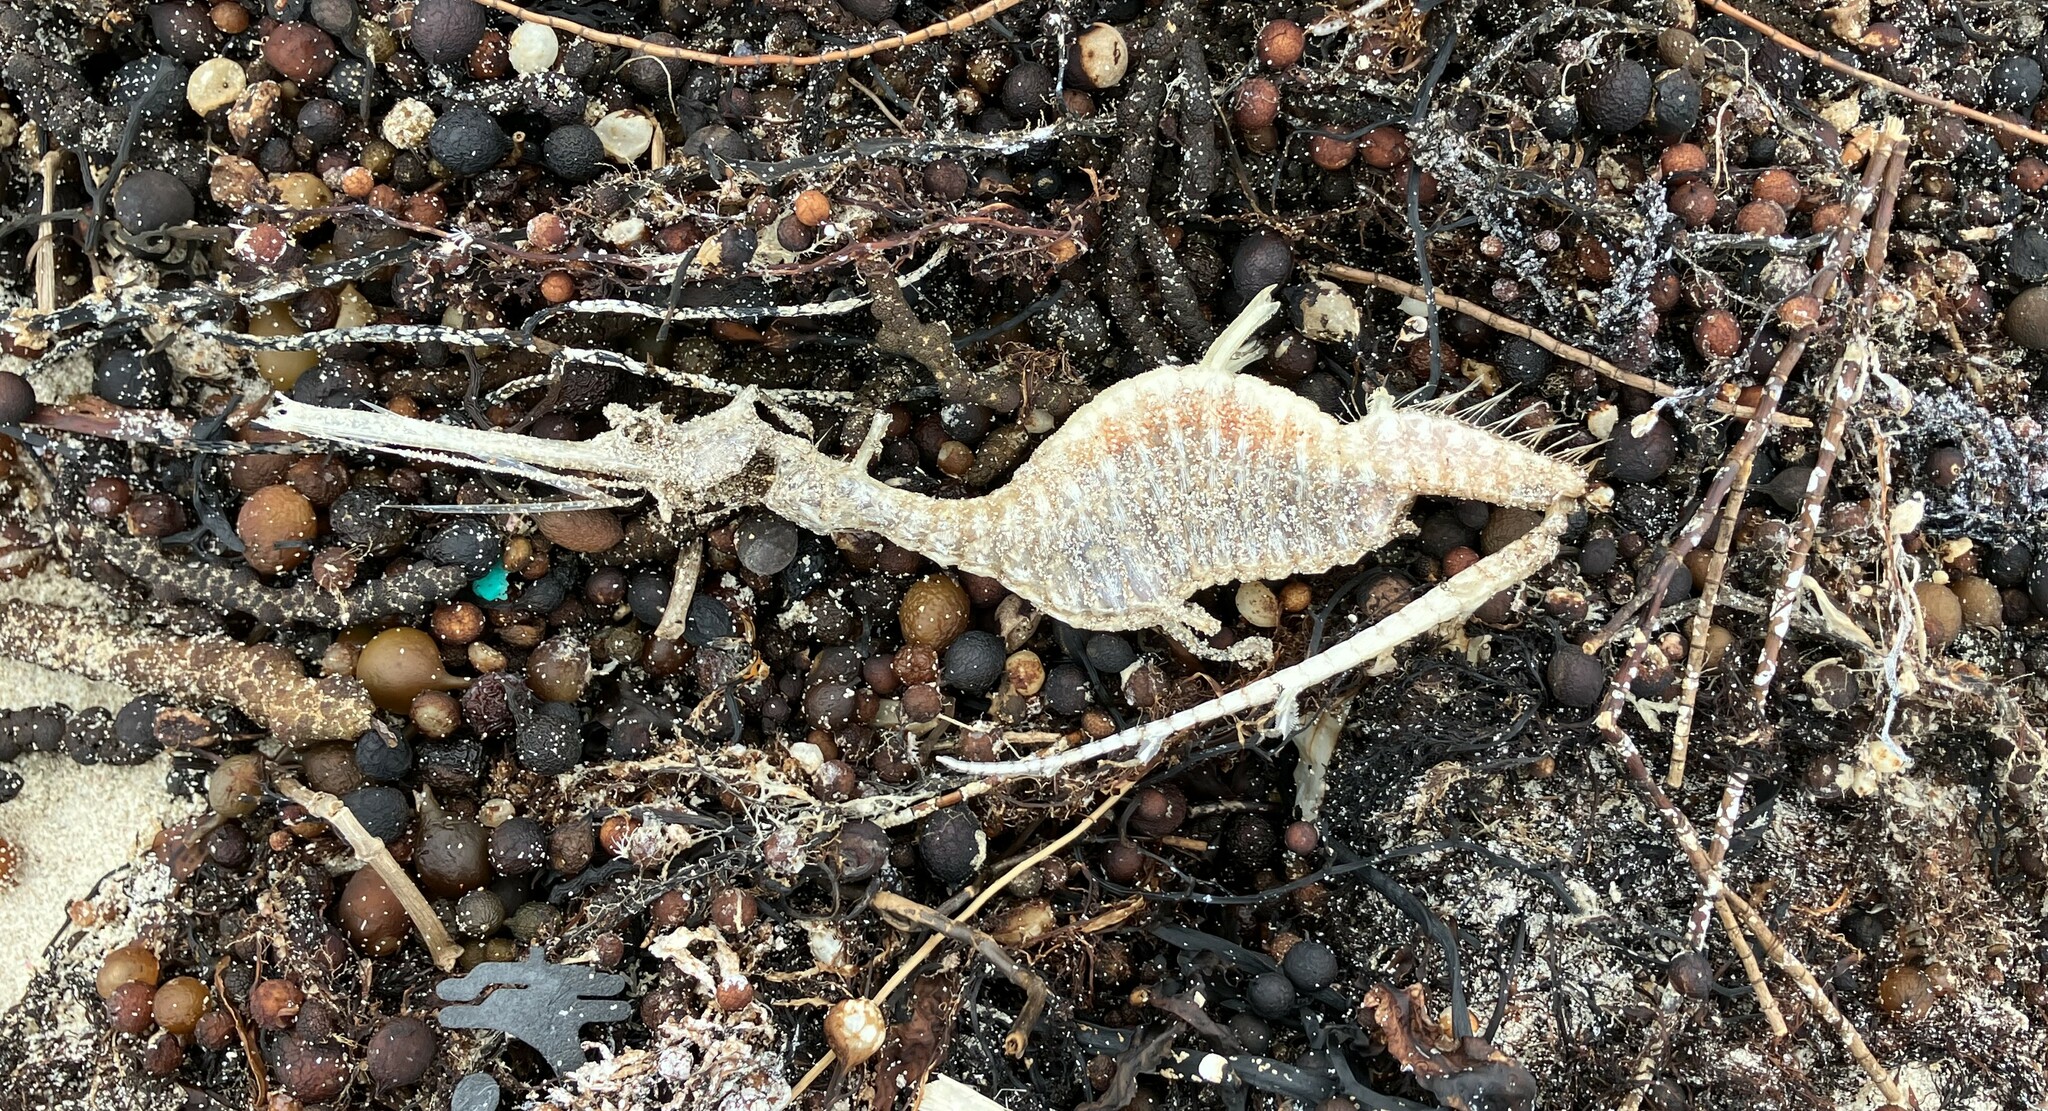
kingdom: Animalia
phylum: Chordata
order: Syngnathiformes
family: Syngnathidae
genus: Phyllopteryx
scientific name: Phyllopteryx taeniolatus
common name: Common seadragon
